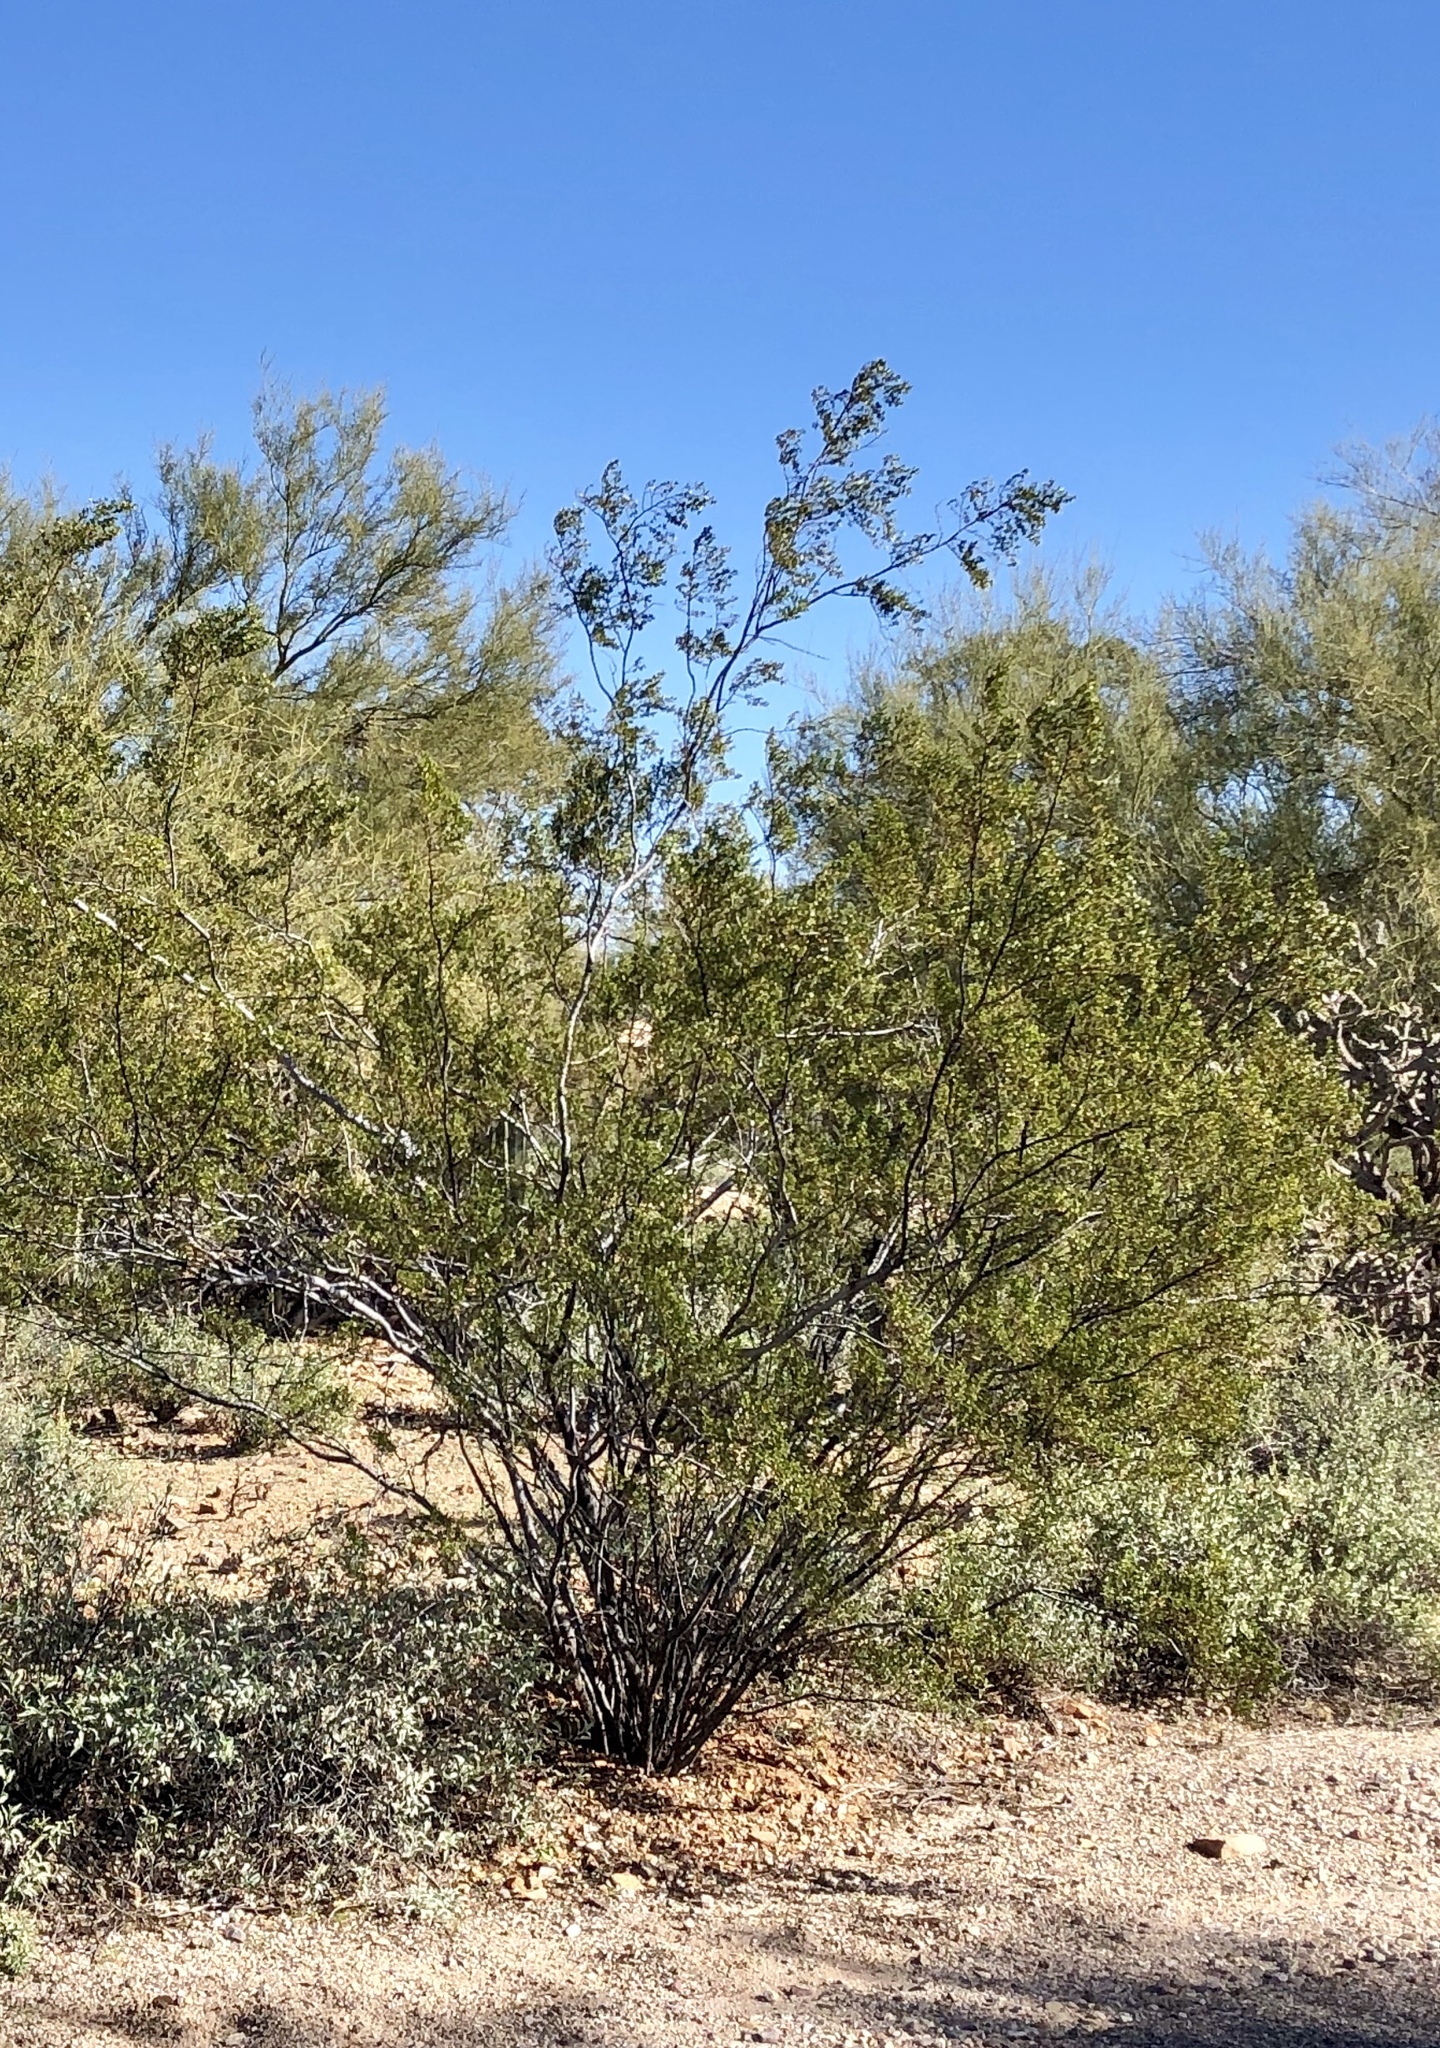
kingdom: Plantae
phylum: Tracheophyta
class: Magnoliopsida
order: Zygophyllales
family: Zygophyllaceae
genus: Larrea
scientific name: Larrea tridentata
